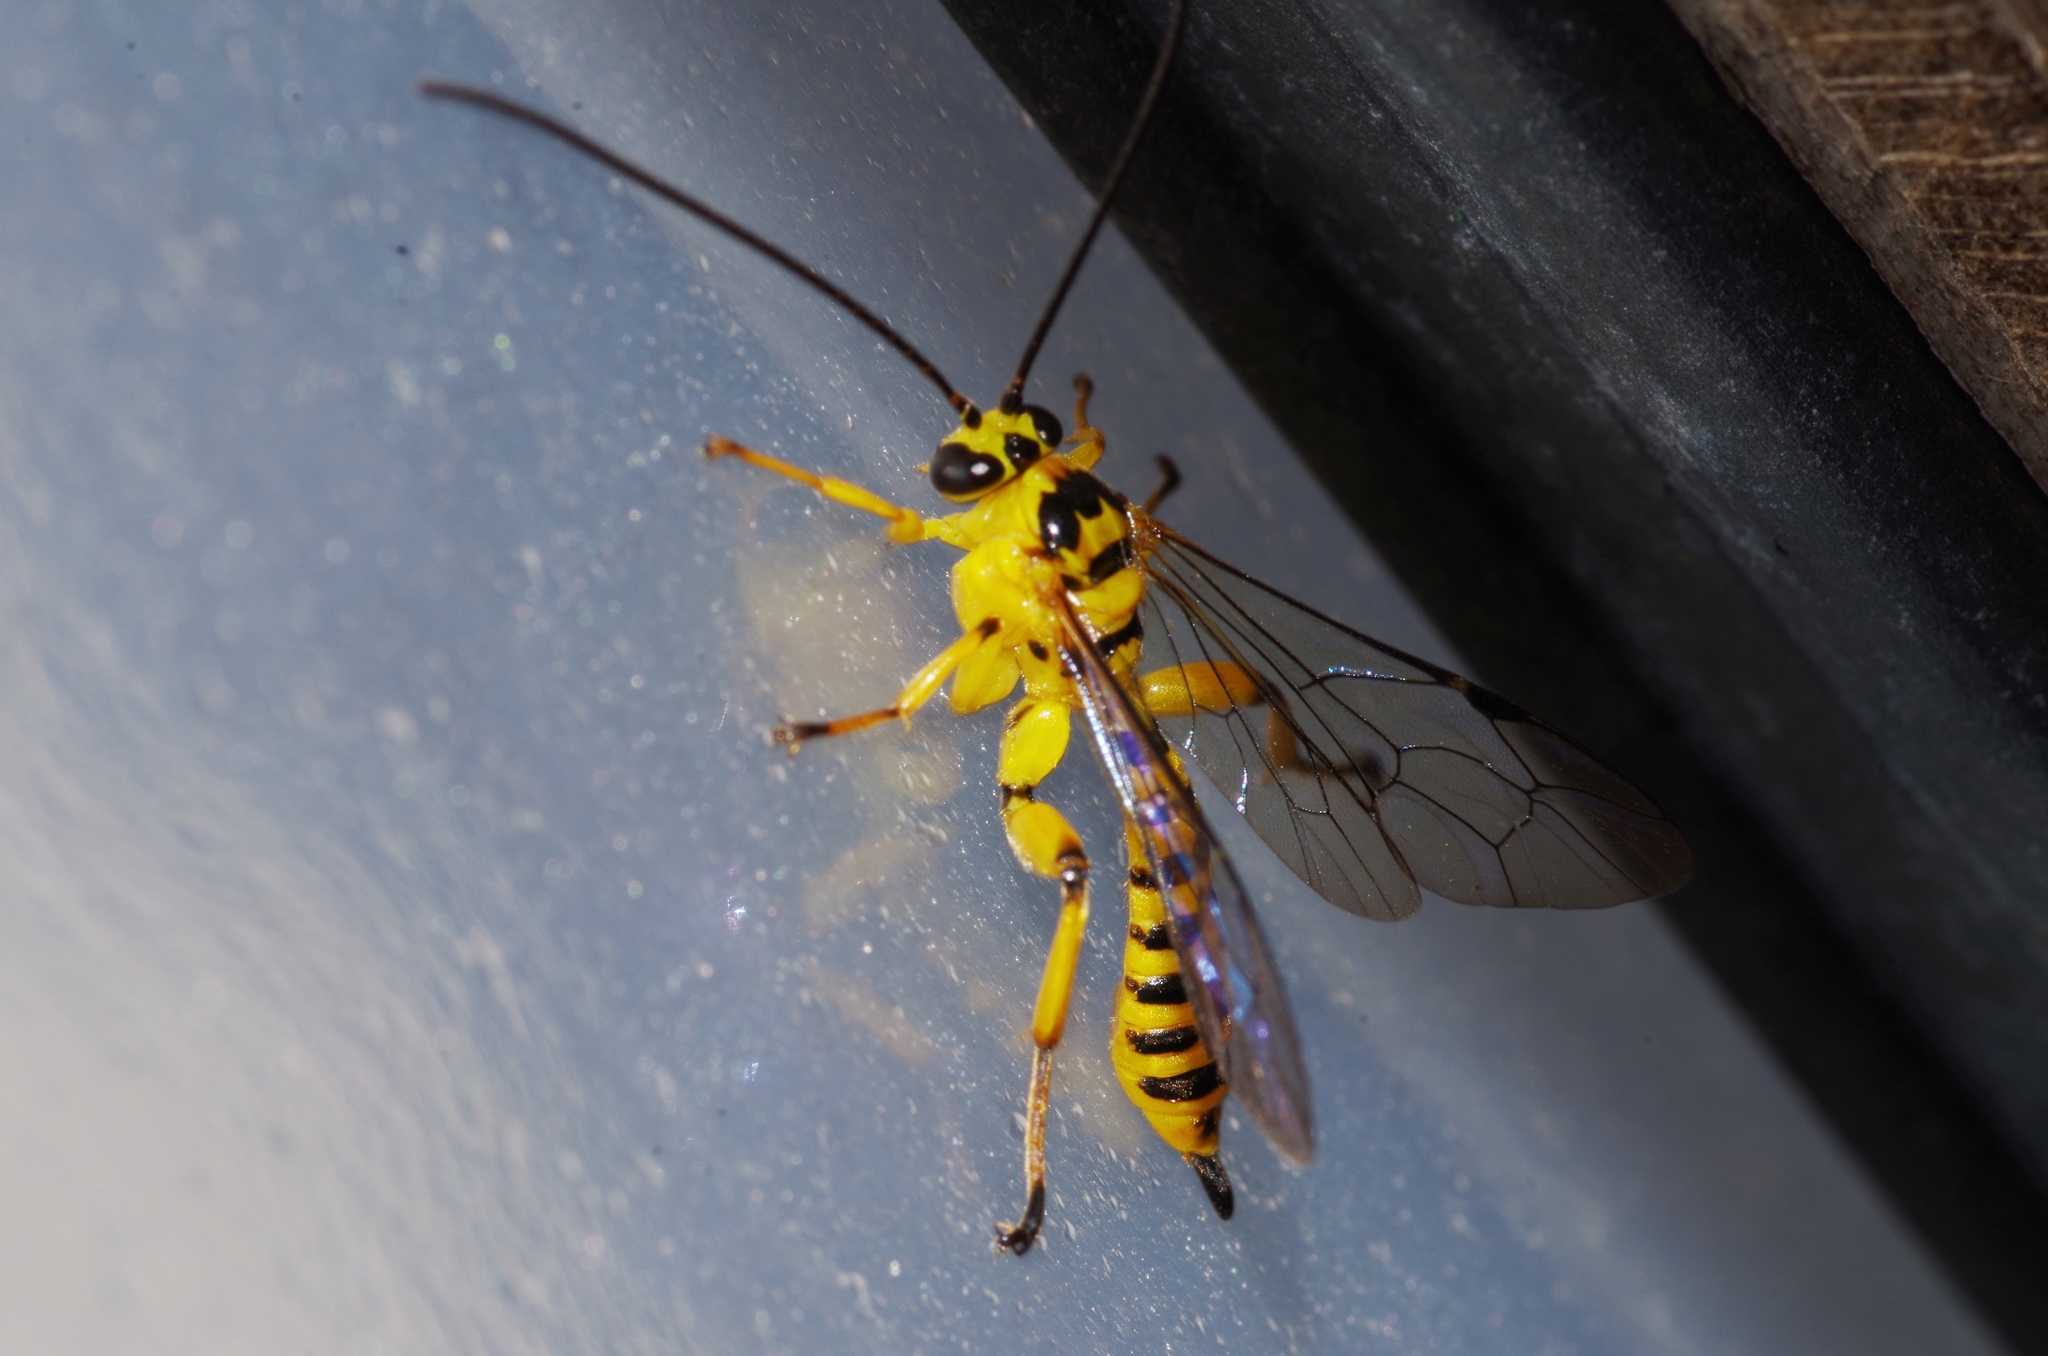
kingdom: Animalia
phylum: Arthropoda
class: Insecta
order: Hymenoptera
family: Ichneumonidae
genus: Xanthopimpla
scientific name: Xanthopimpla naenia
